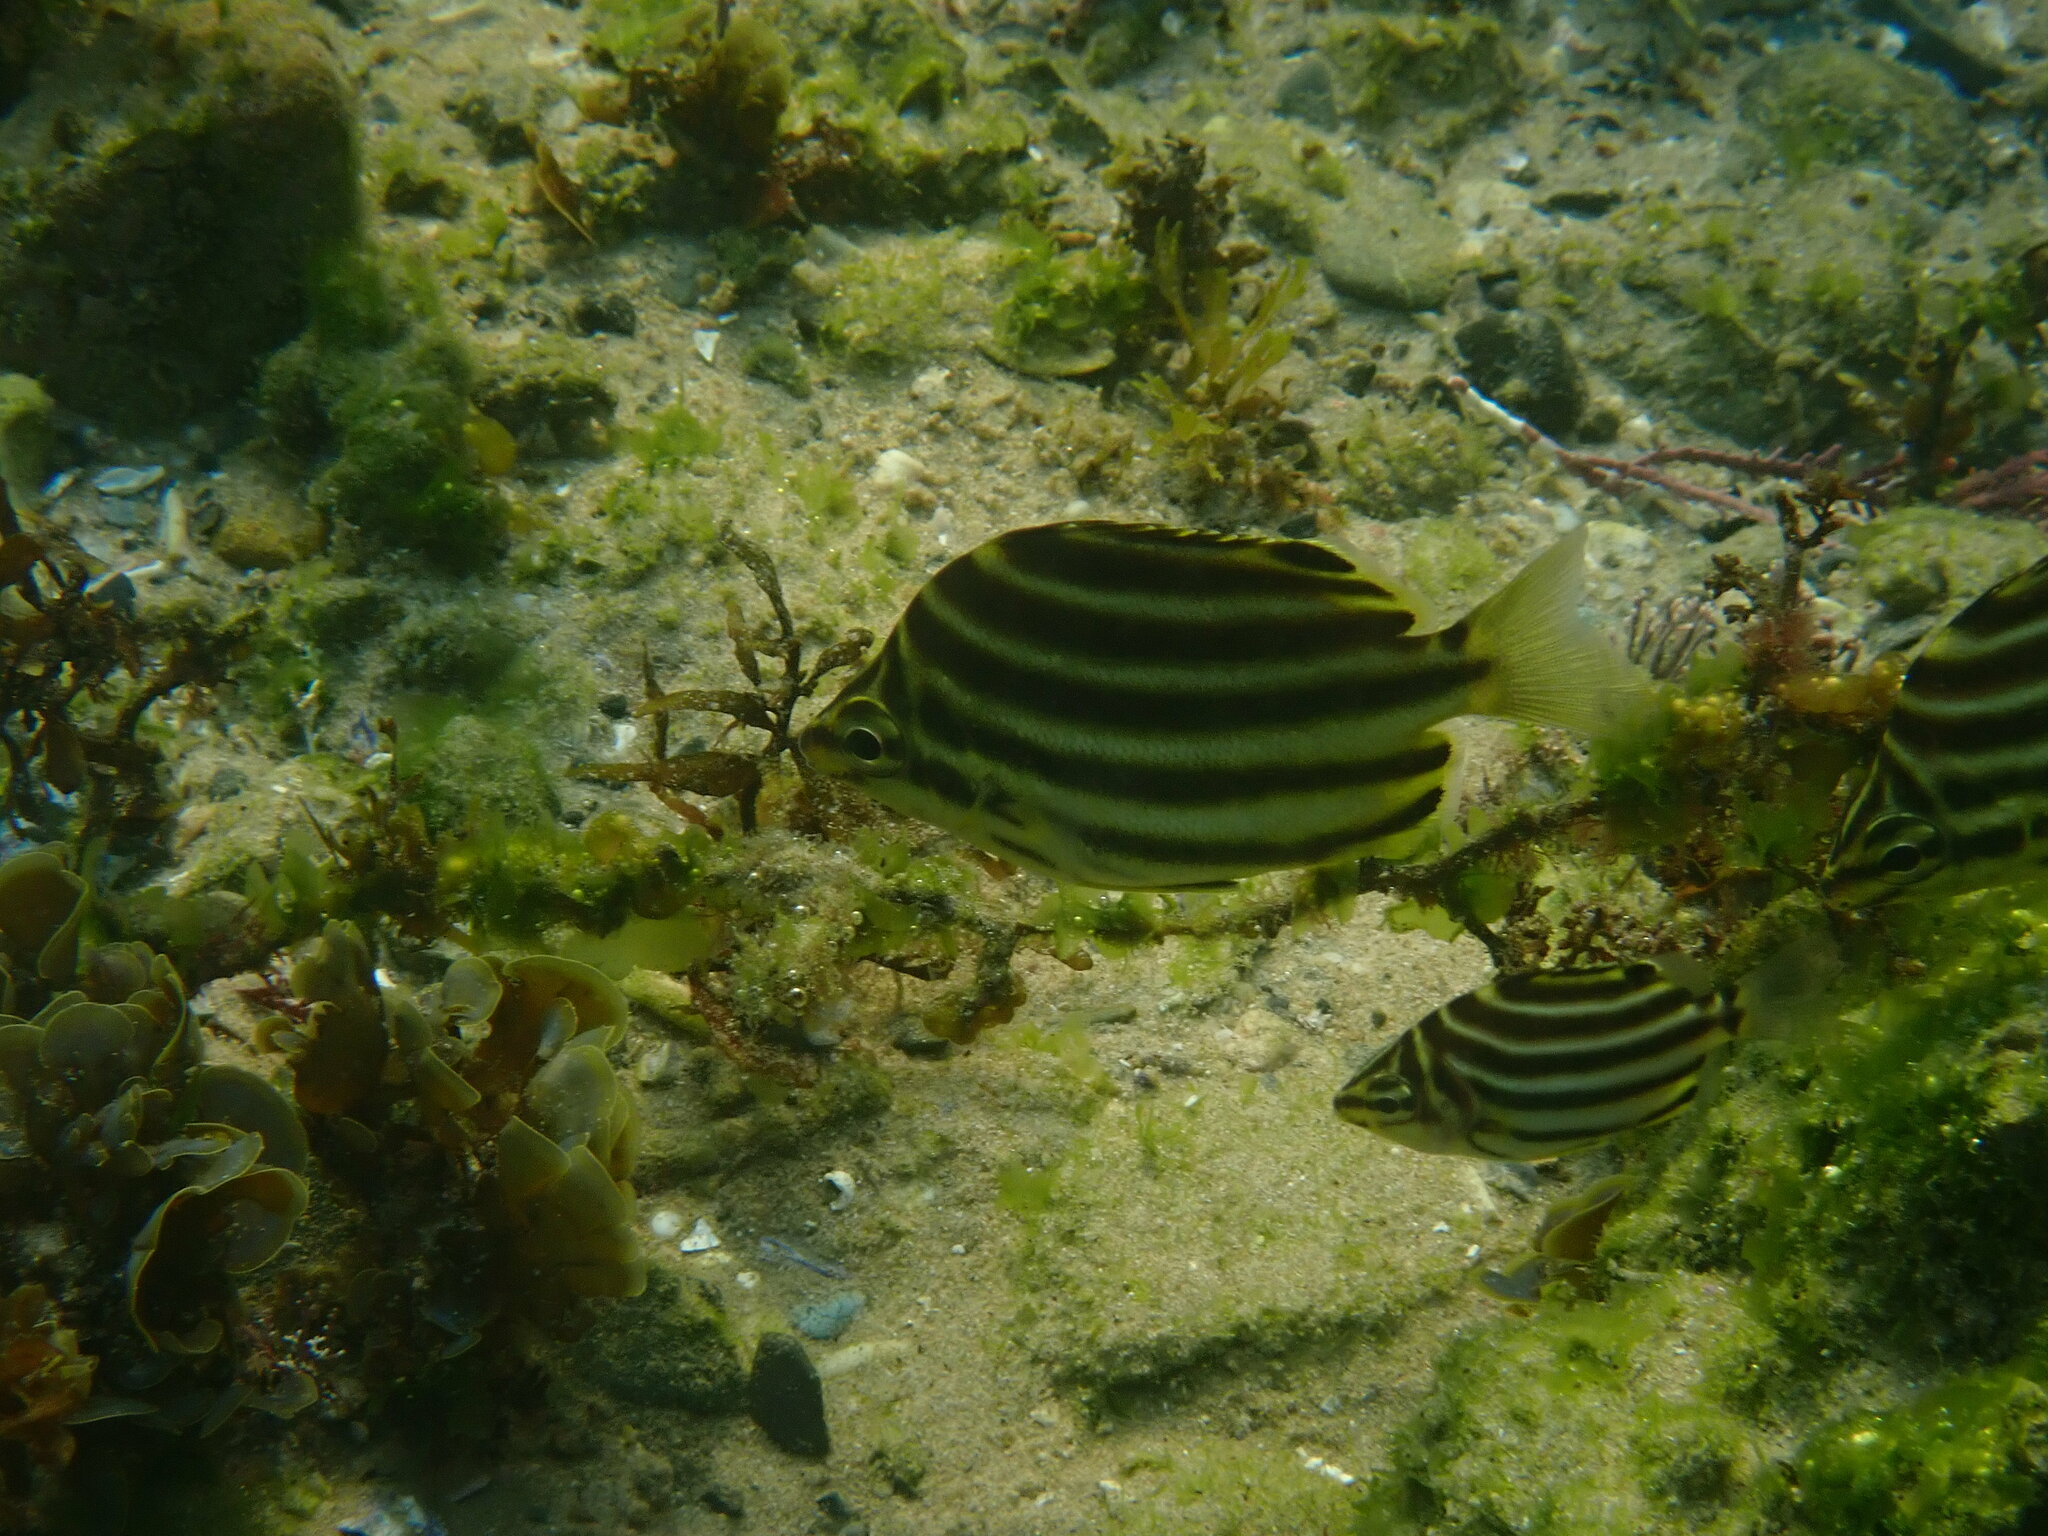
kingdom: Animalia
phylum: Chordata
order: Perciformes
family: Kyphosidae
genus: Microcanthus
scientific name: Microcanthus joyceae
